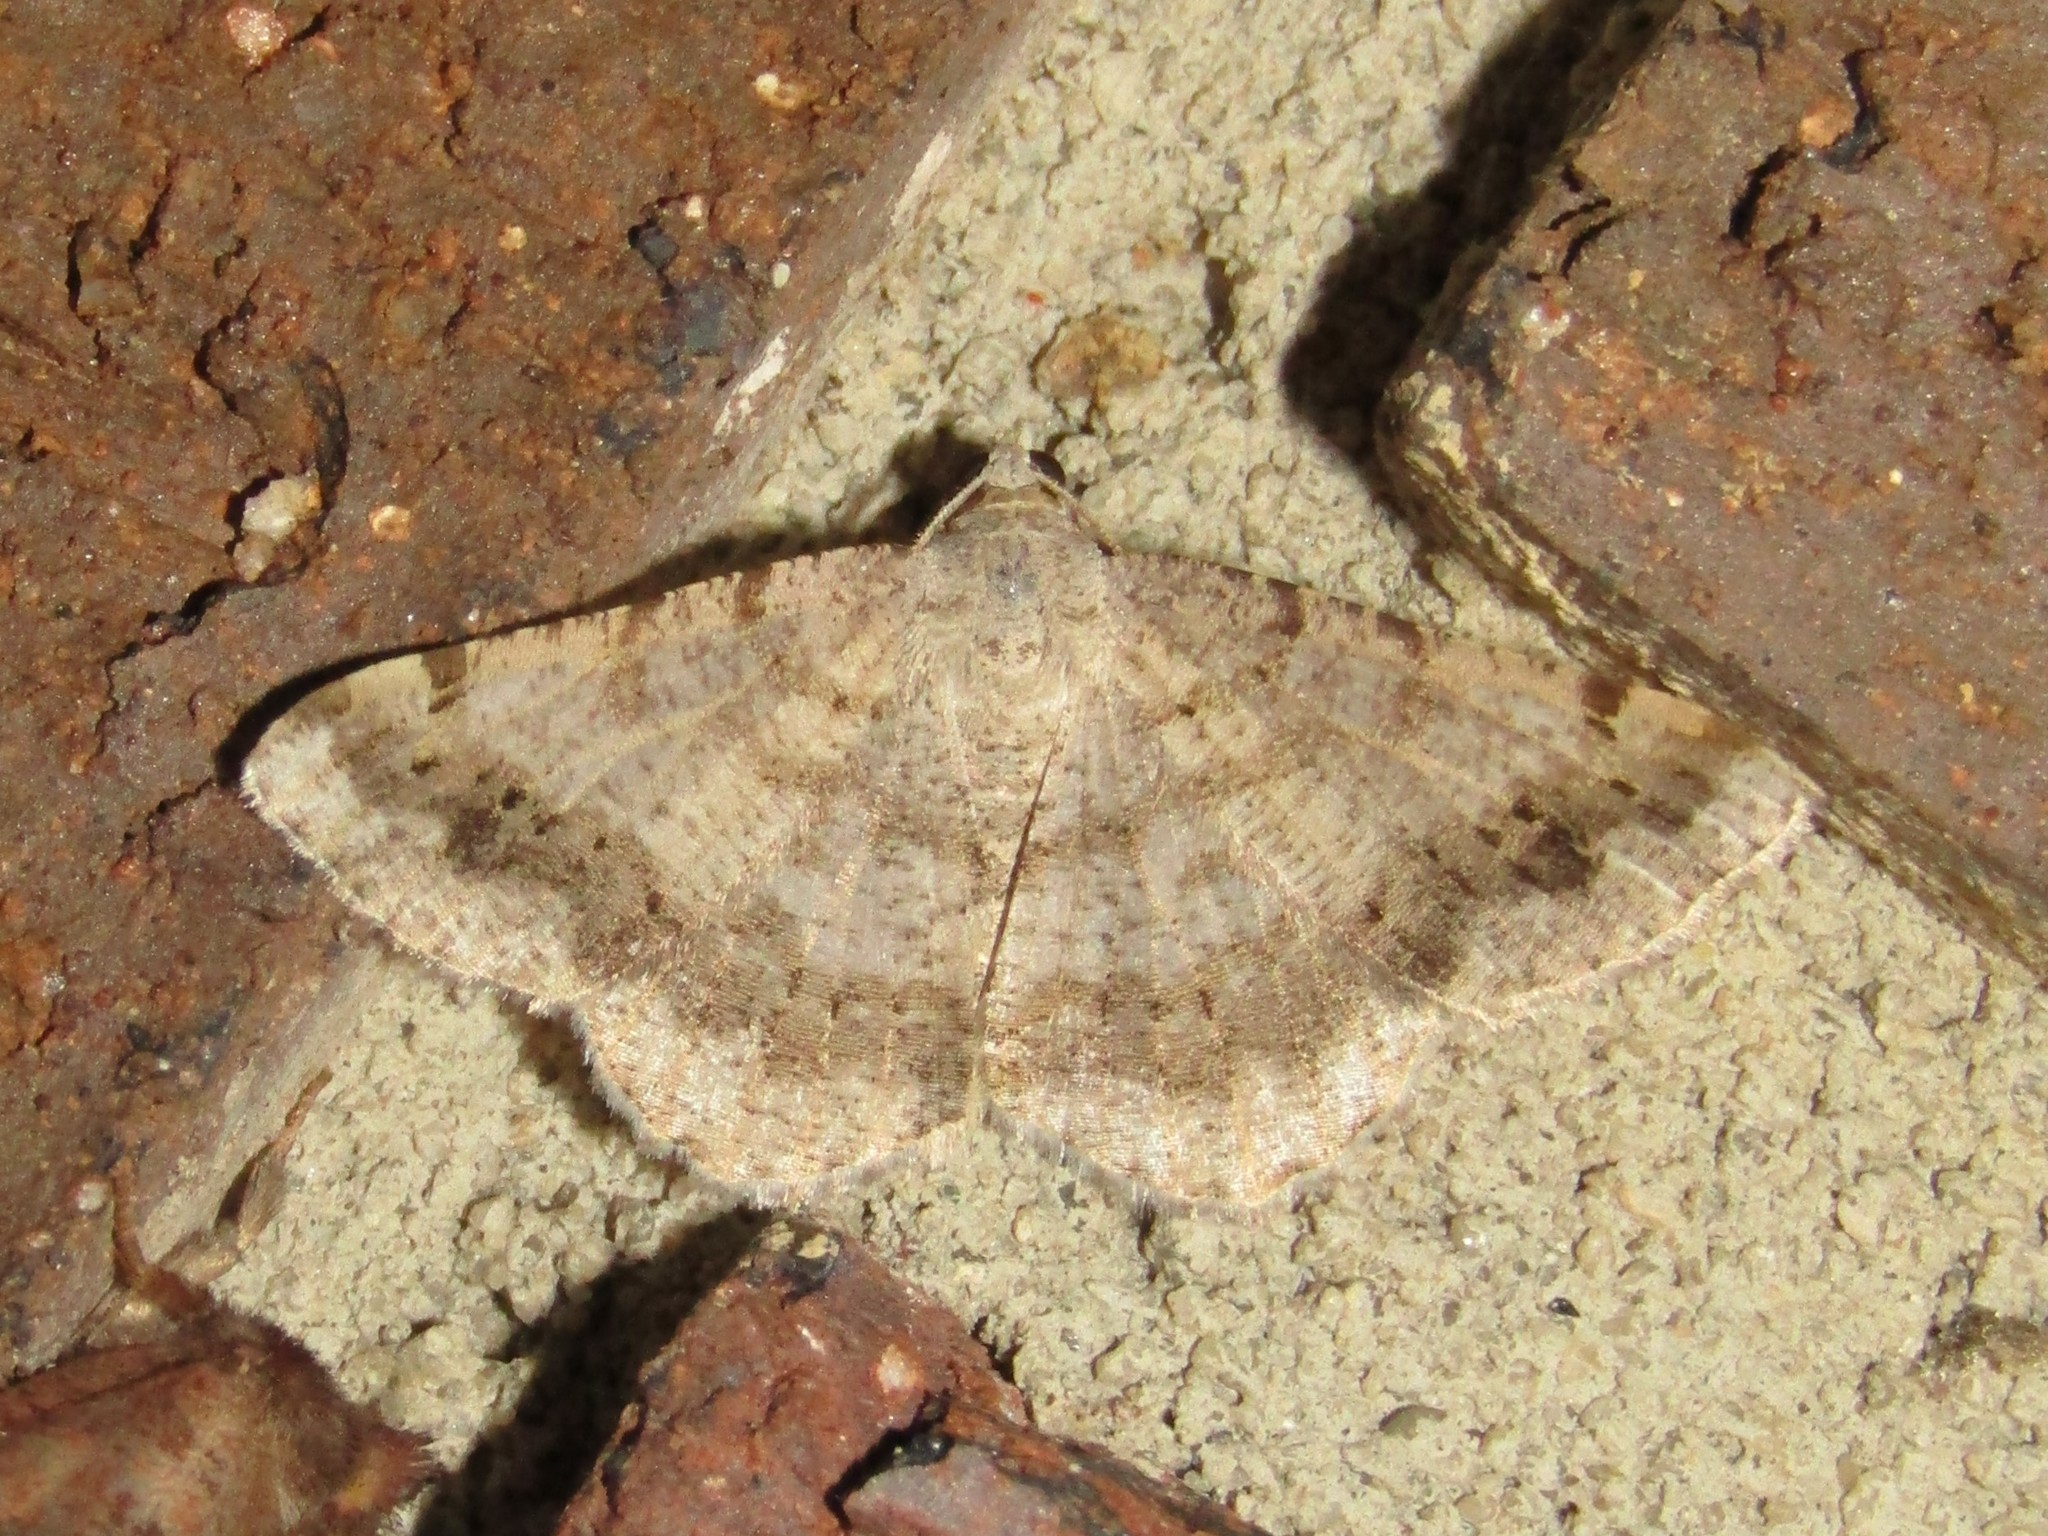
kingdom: Animalia
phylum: Arthropoda
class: Insecta
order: Lepidoptera
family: Geometridae
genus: Digrammia
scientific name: Digrammia ocellinata
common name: Faint-spotted angle
